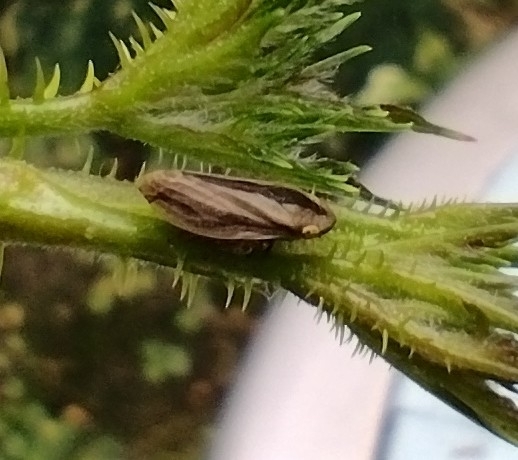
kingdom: Animalia
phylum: Arthropoda
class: Insecta
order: Hemiptera
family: Aphrophoridae
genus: Philaenus
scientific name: Philaenus spumarius
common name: Meadow spittlebug
